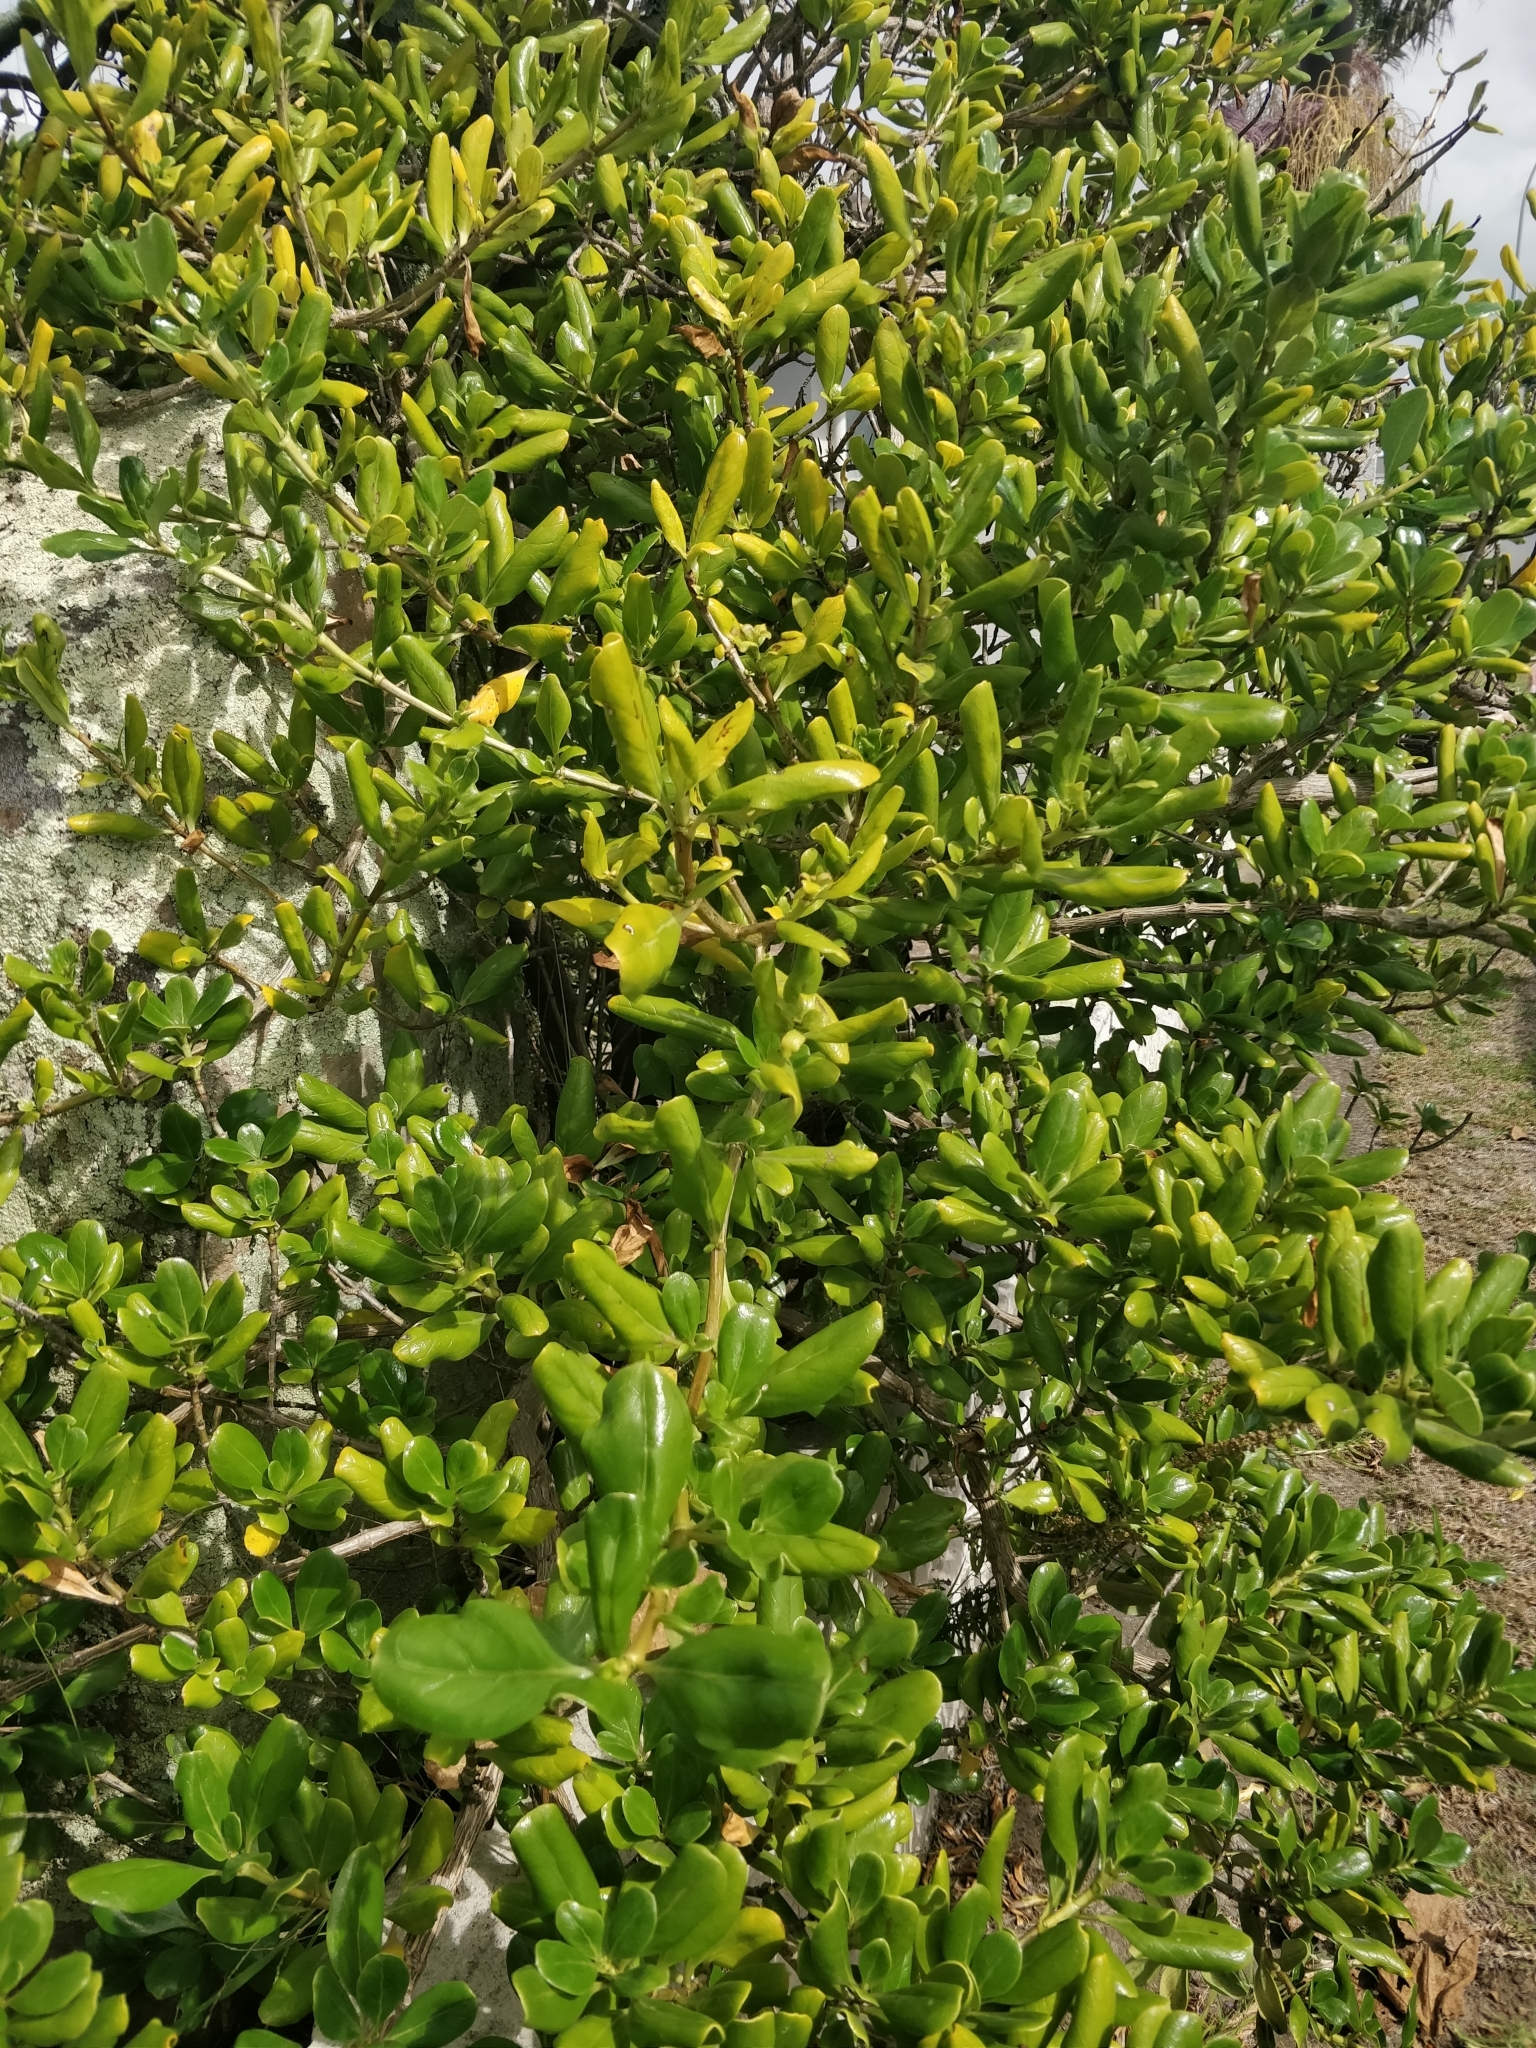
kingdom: Plantae
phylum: Tracheophyta
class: Magnoliopsida
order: Gentianales
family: Rubiaceae
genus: Coprosma
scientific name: Coprosma repens
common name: Tree bedstraw
